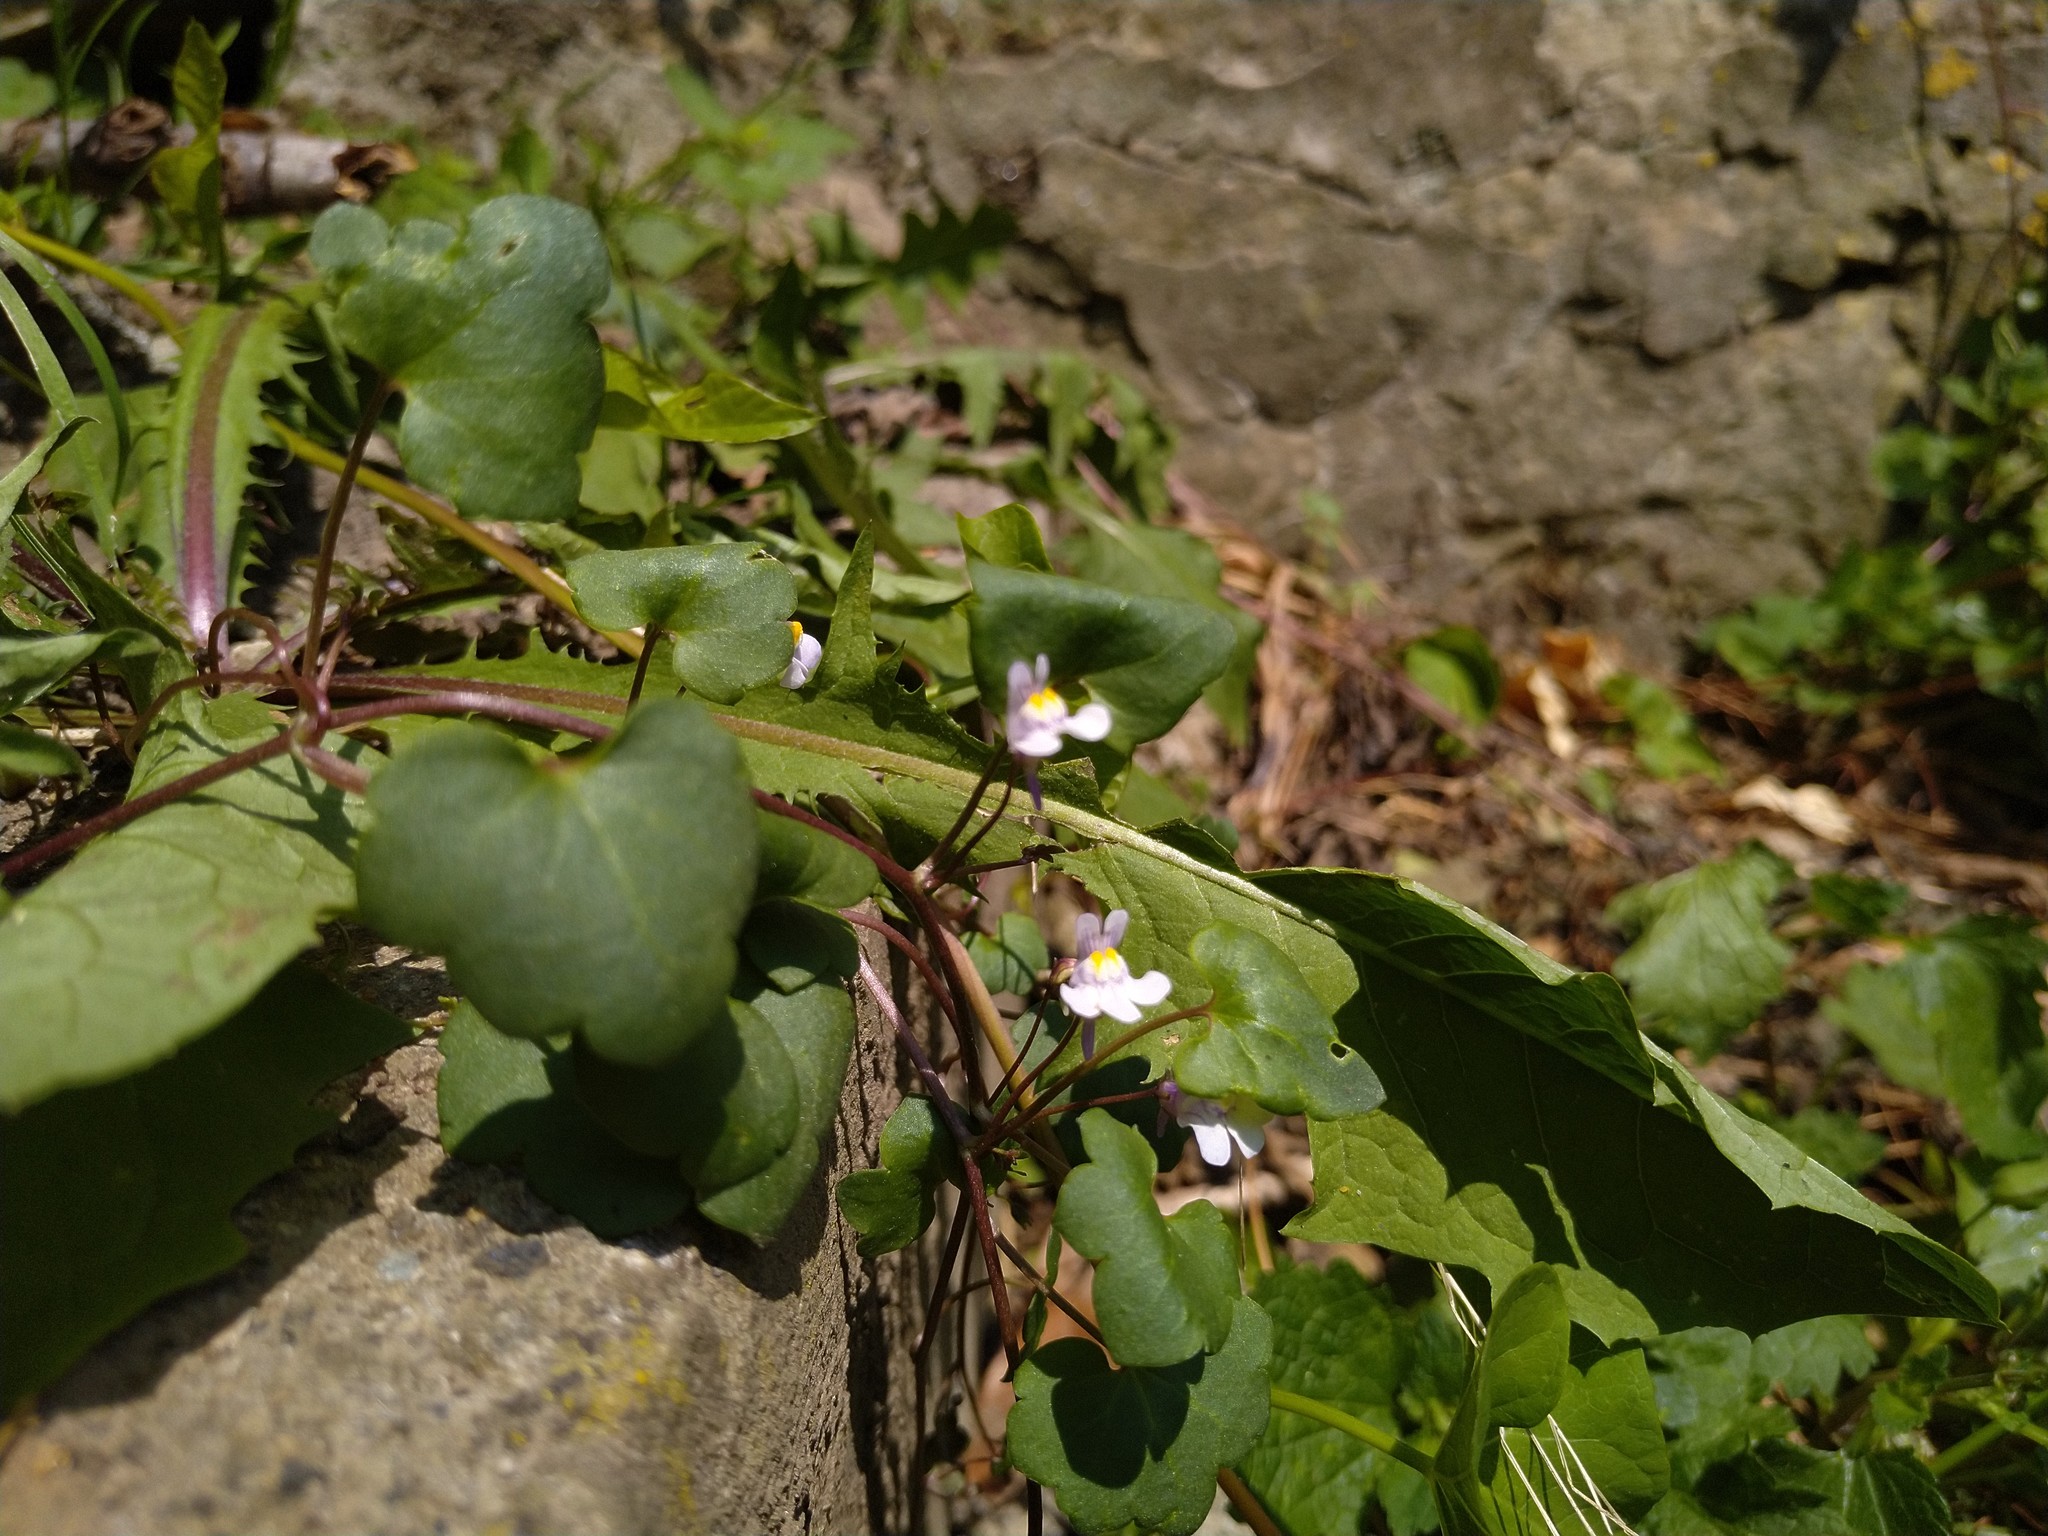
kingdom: Plantae
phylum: Tracheophyta
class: Magnoliopsida
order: Lamiales
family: Plantaginaceae
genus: Cymbalaria
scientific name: Cymbalaria muralis
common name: Ivy-leaved toadflax
